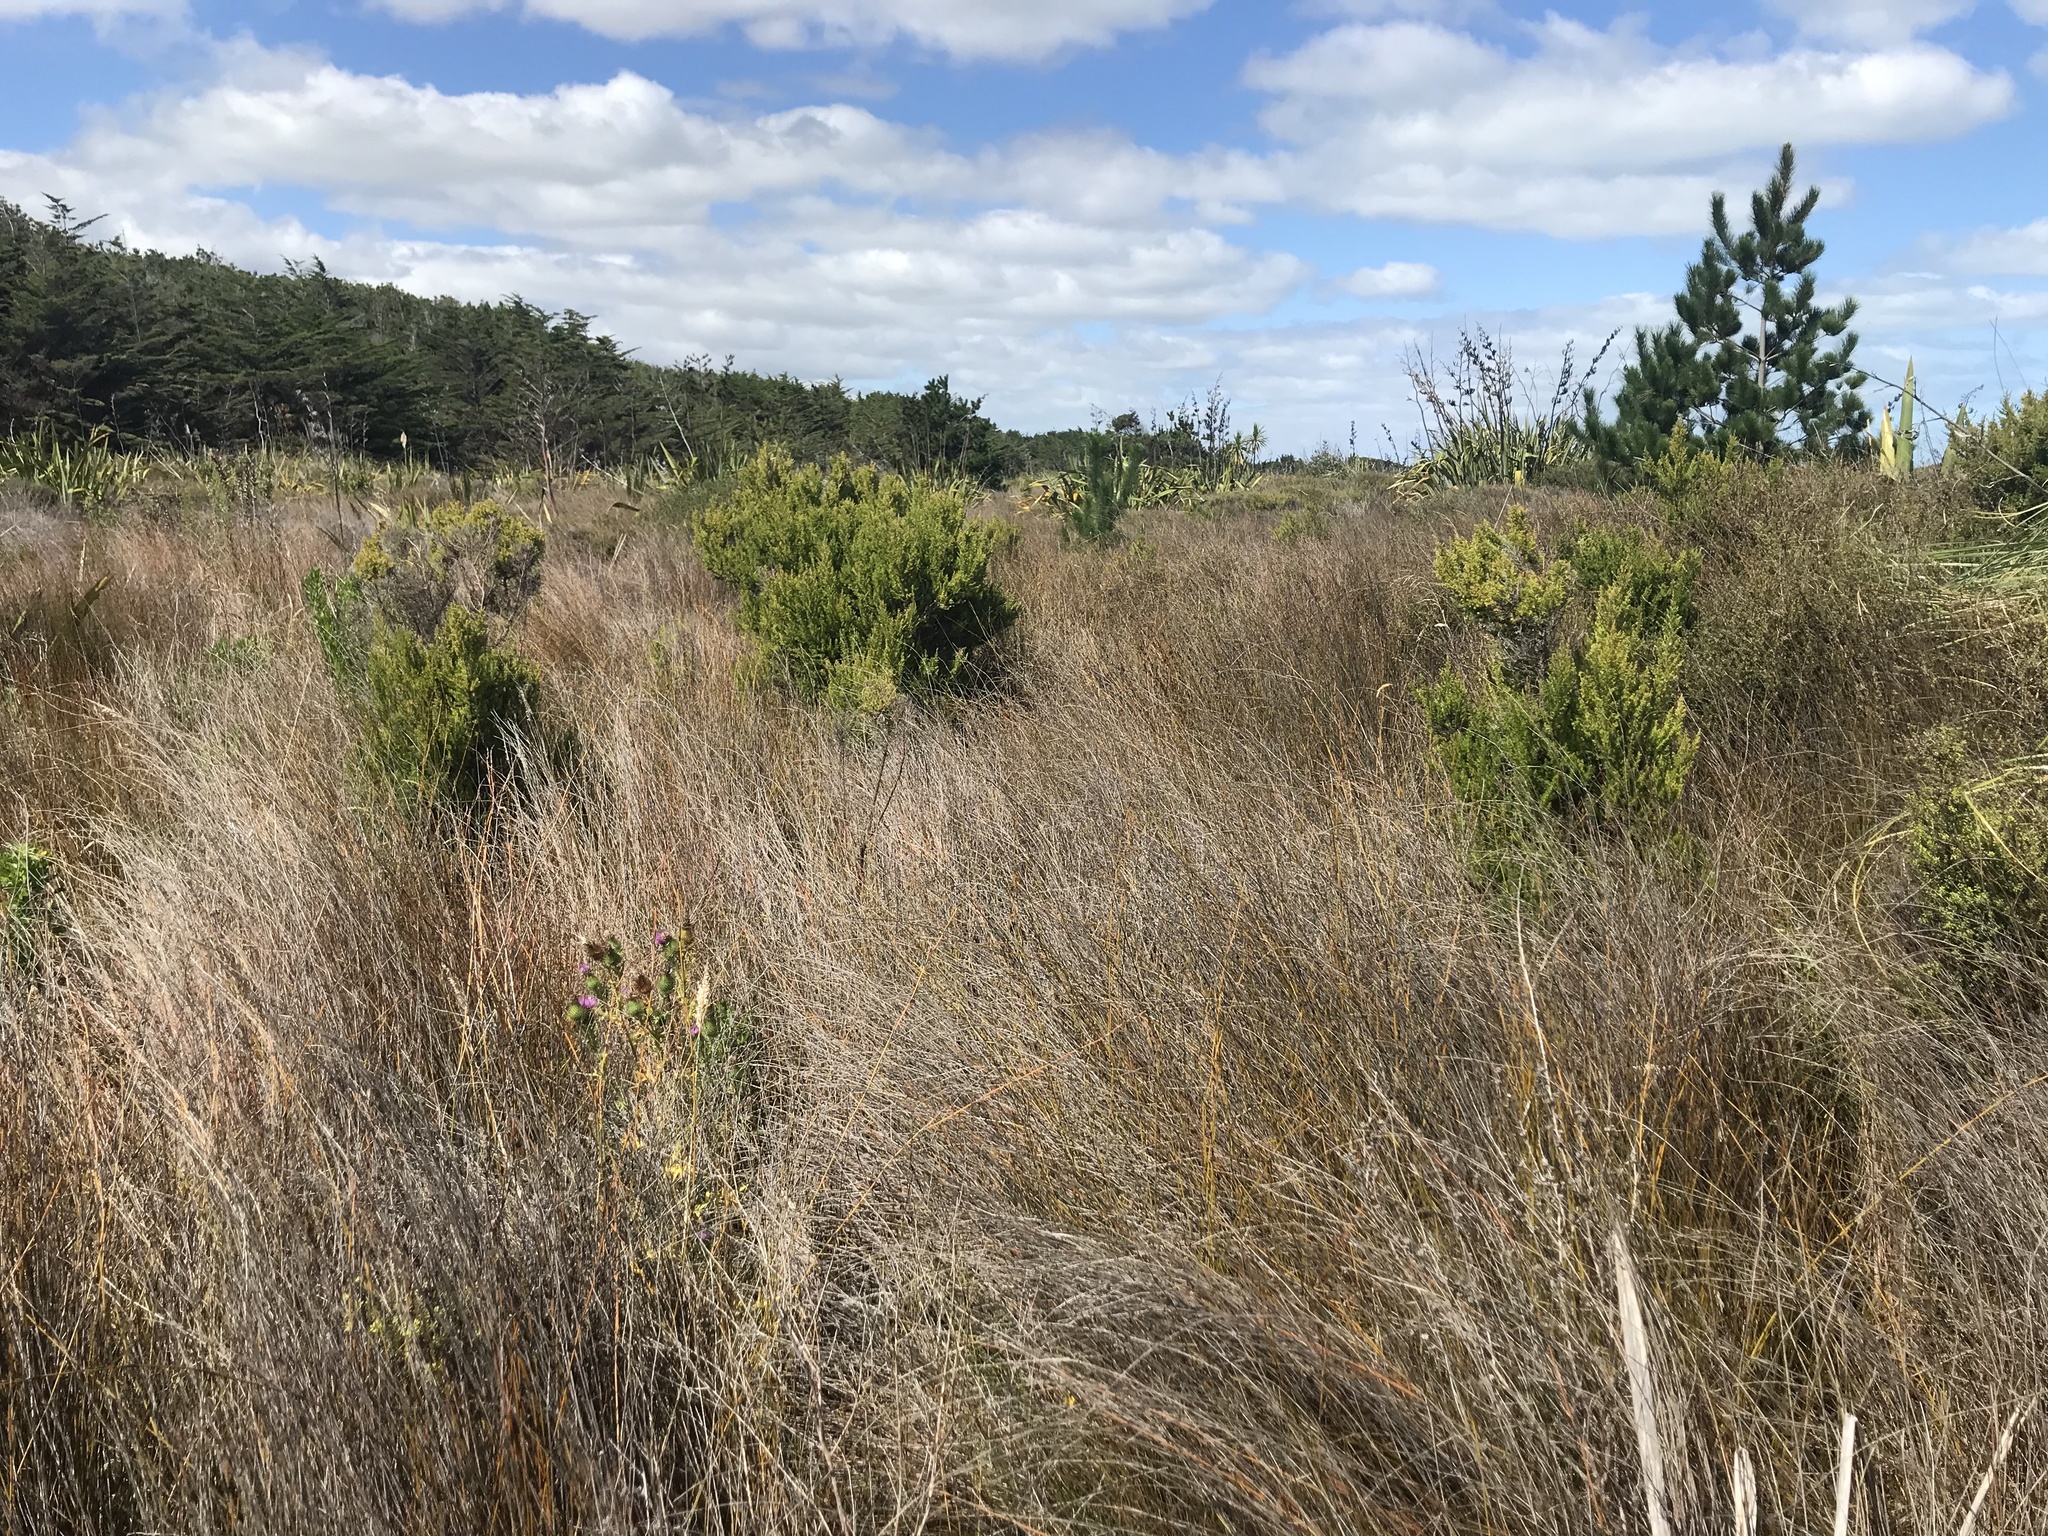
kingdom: Plantae
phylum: Tracheophyta
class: Liliopsida
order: Poales
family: Restionaceae
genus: Apodasmia
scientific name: Apodasmia similis
